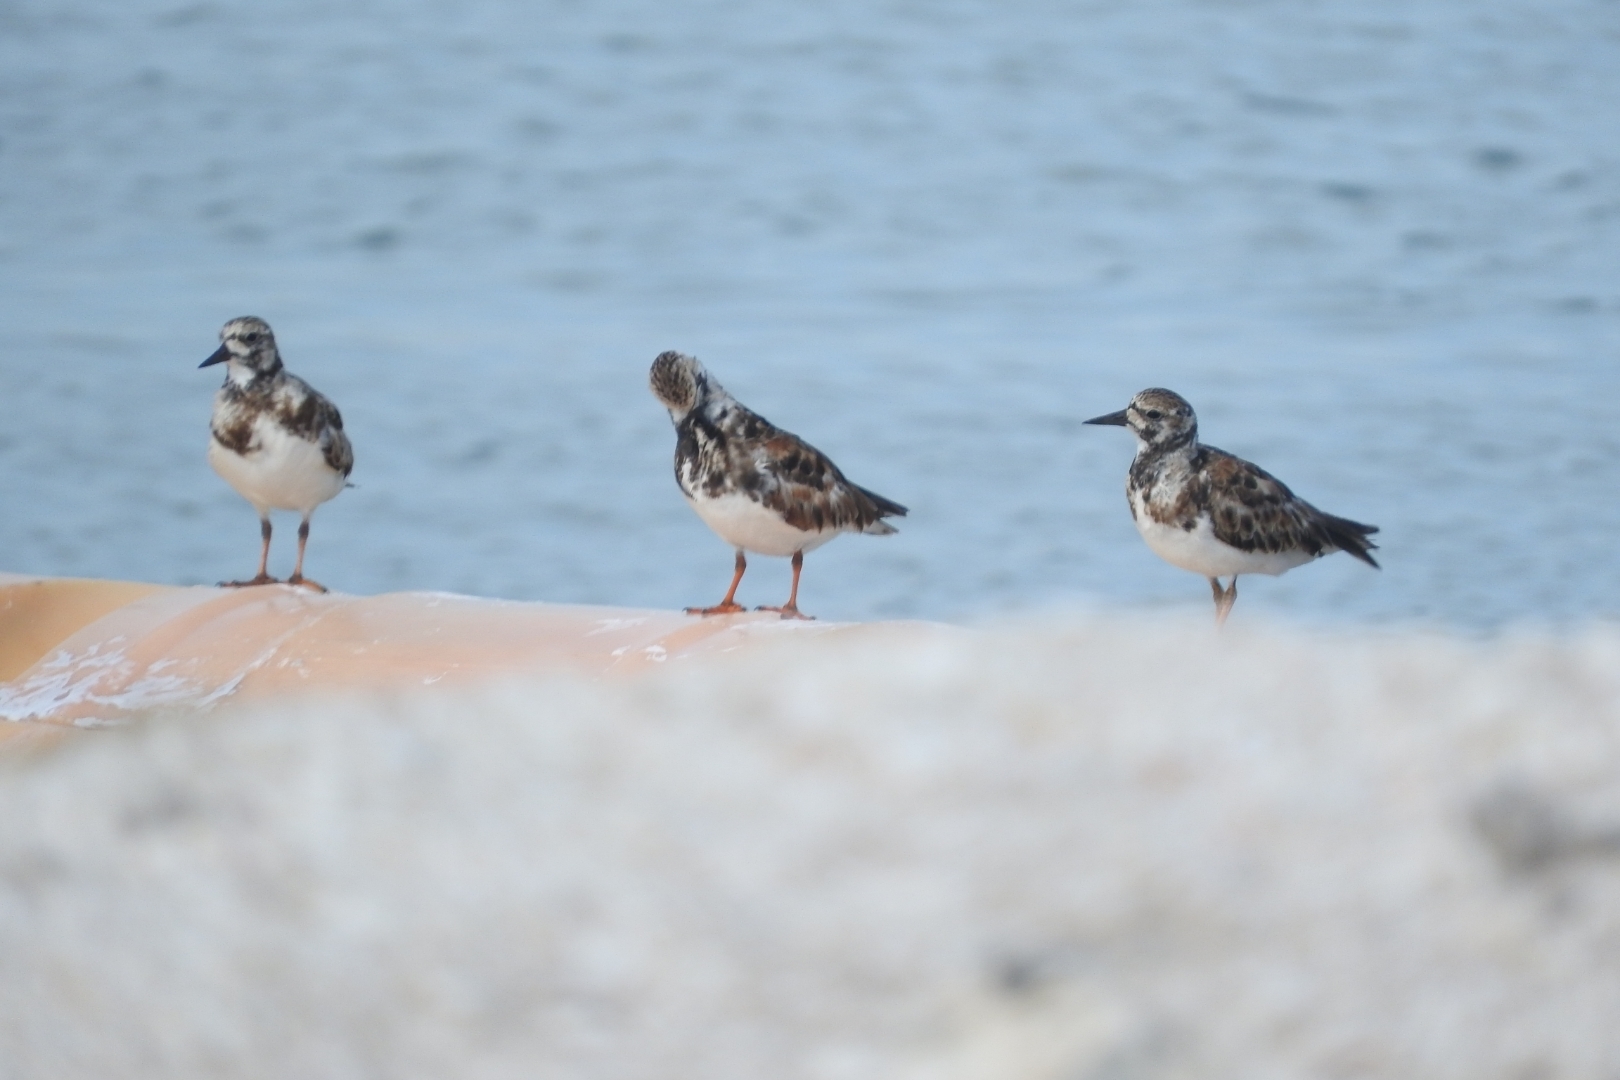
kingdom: Animalia
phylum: Chordata
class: Aves
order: Charadriiformes
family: Scolopacidae
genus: Arenaria
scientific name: Arenaria interpres
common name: Ruddy turnstone
